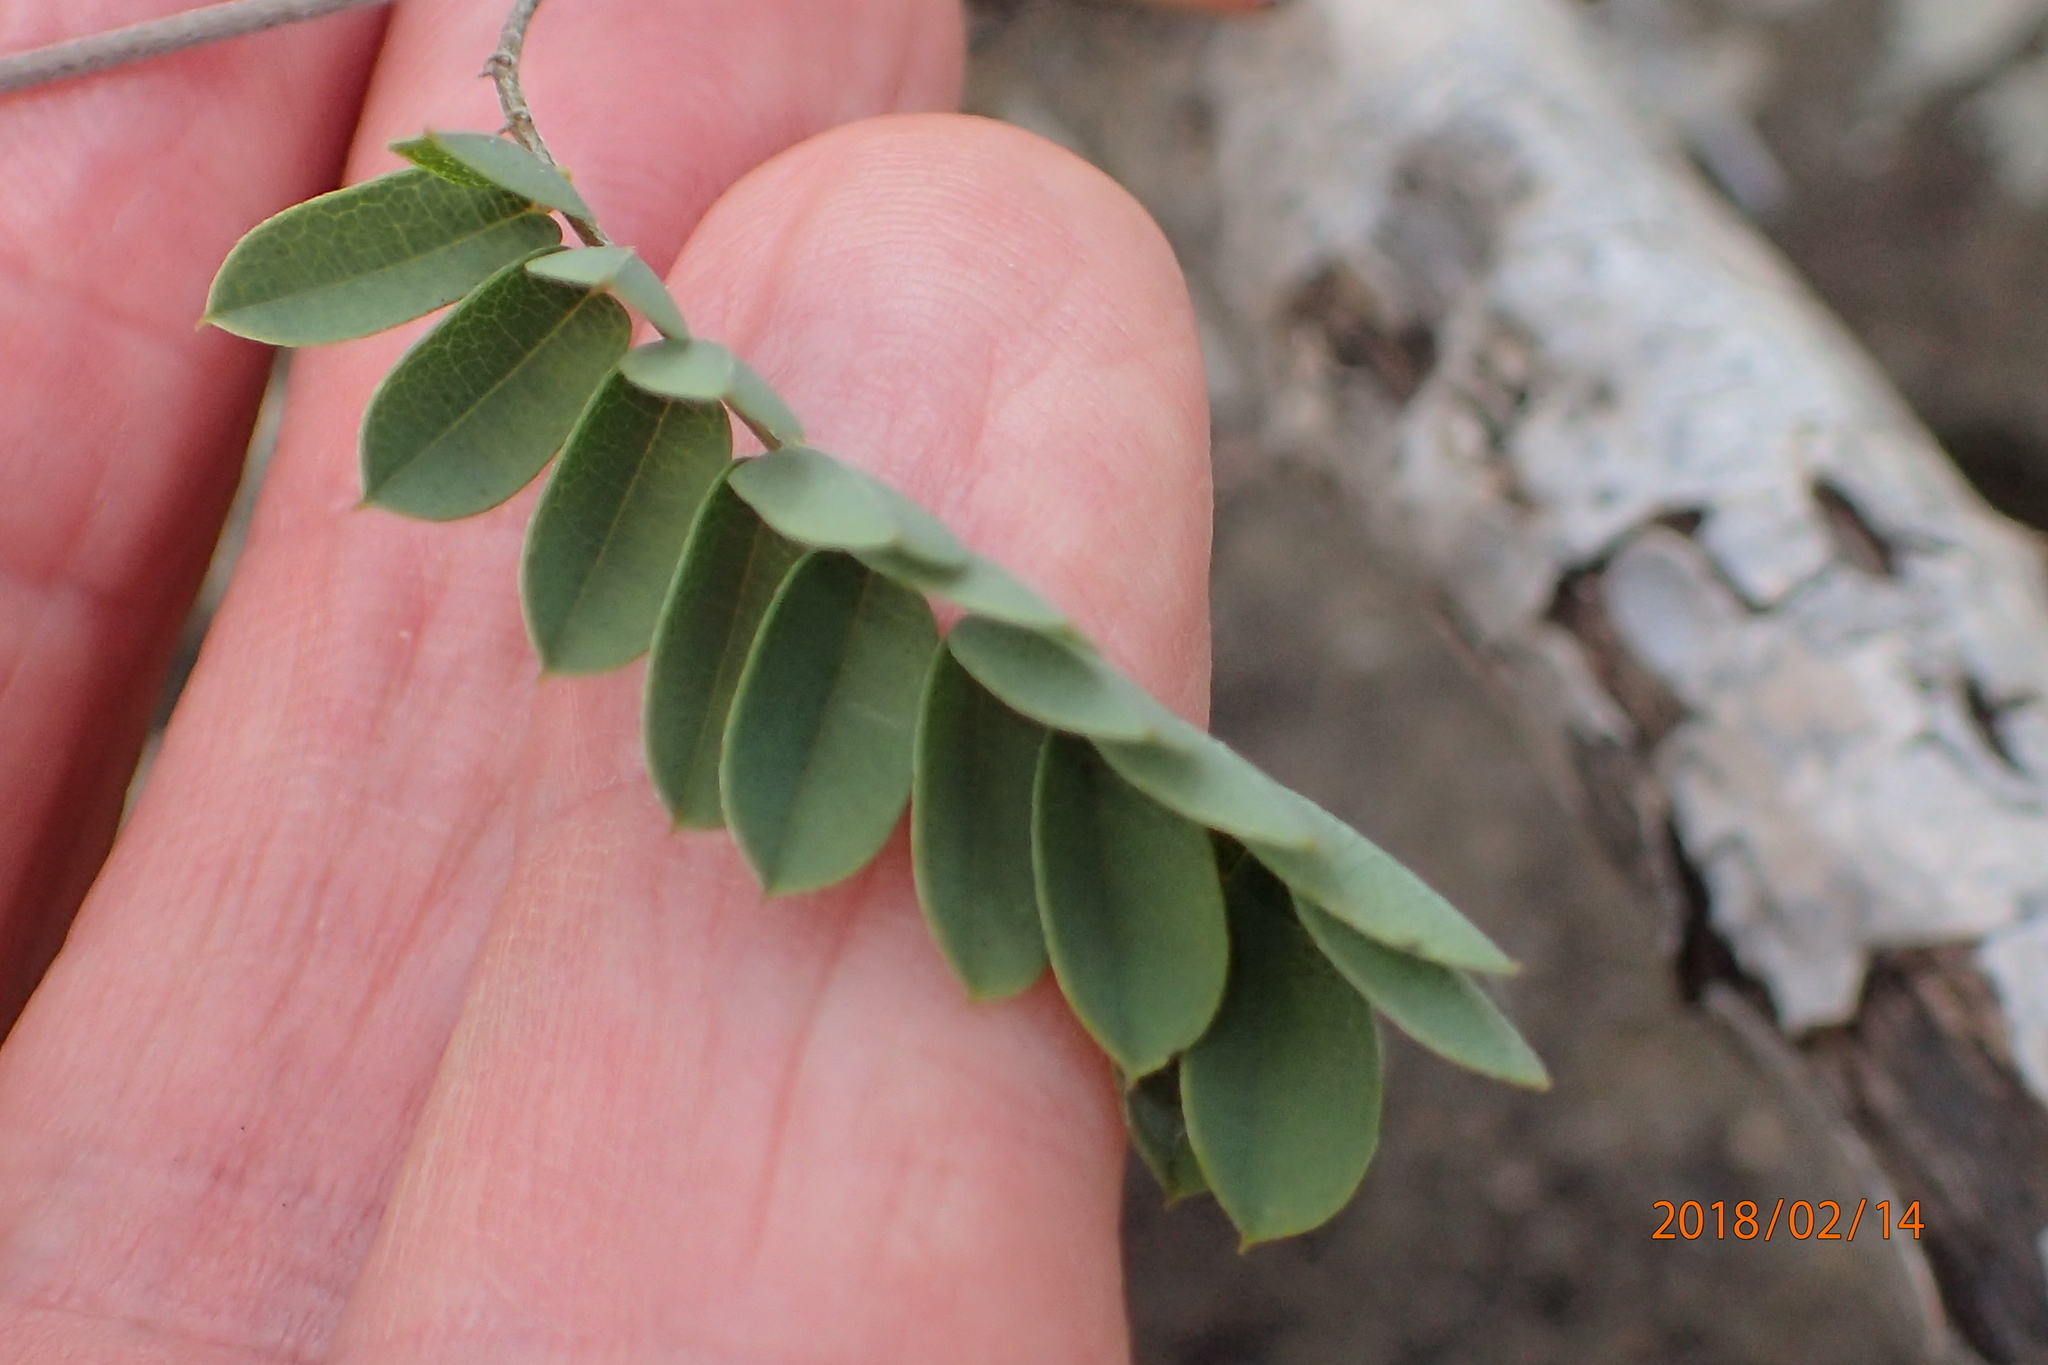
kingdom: Plantae
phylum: Tracheophyta
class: Magnoliopsida
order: Fabales
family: Fabaceae
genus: Abrus
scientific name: Abrus laevigatus
